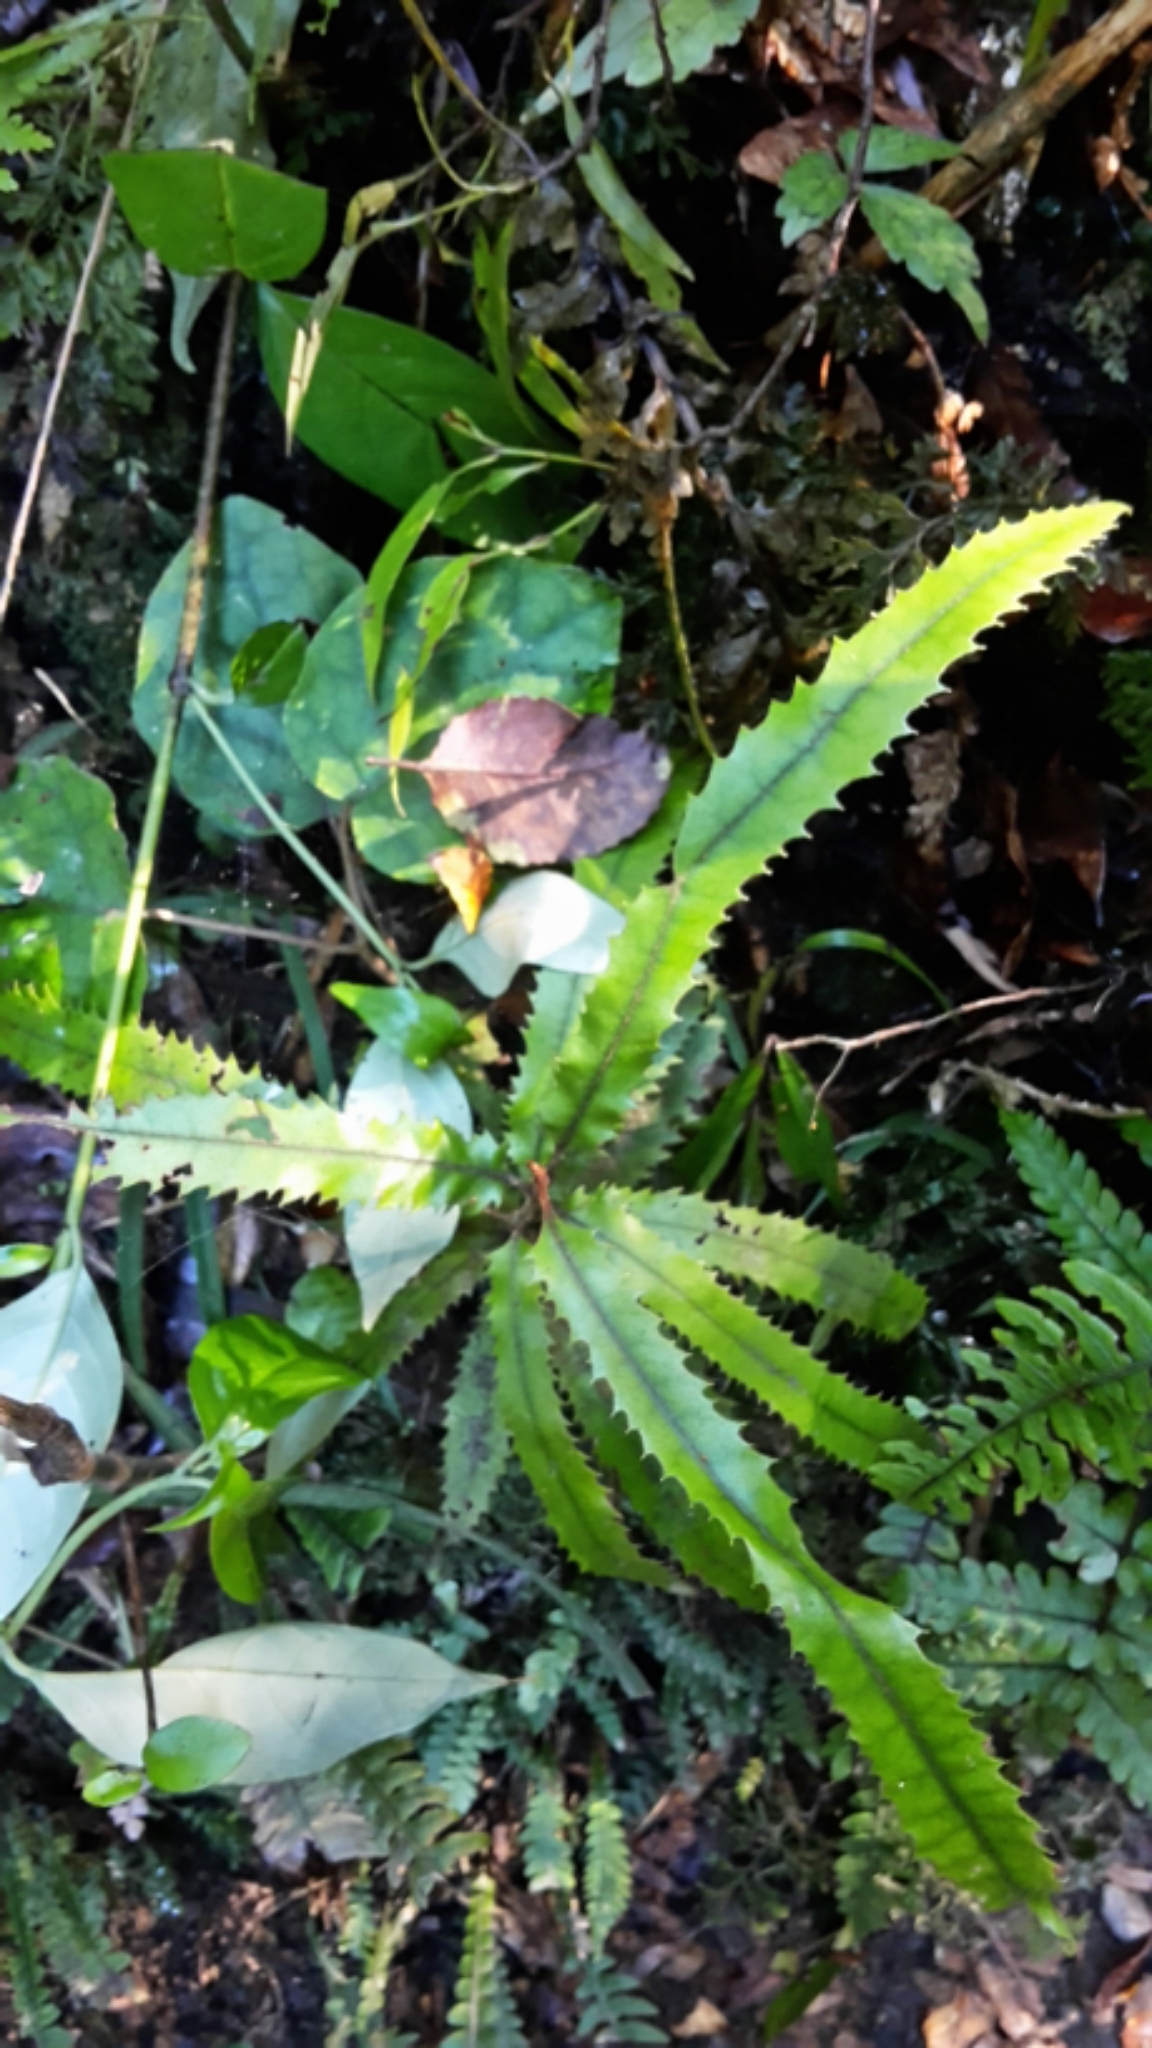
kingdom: Plantae
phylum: Tracheophyta
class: Magnoliopsida
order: Proteales
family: Proteaceae
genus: Knightia
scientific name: Knightia excelsa
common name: New zealand-honeysuckle
